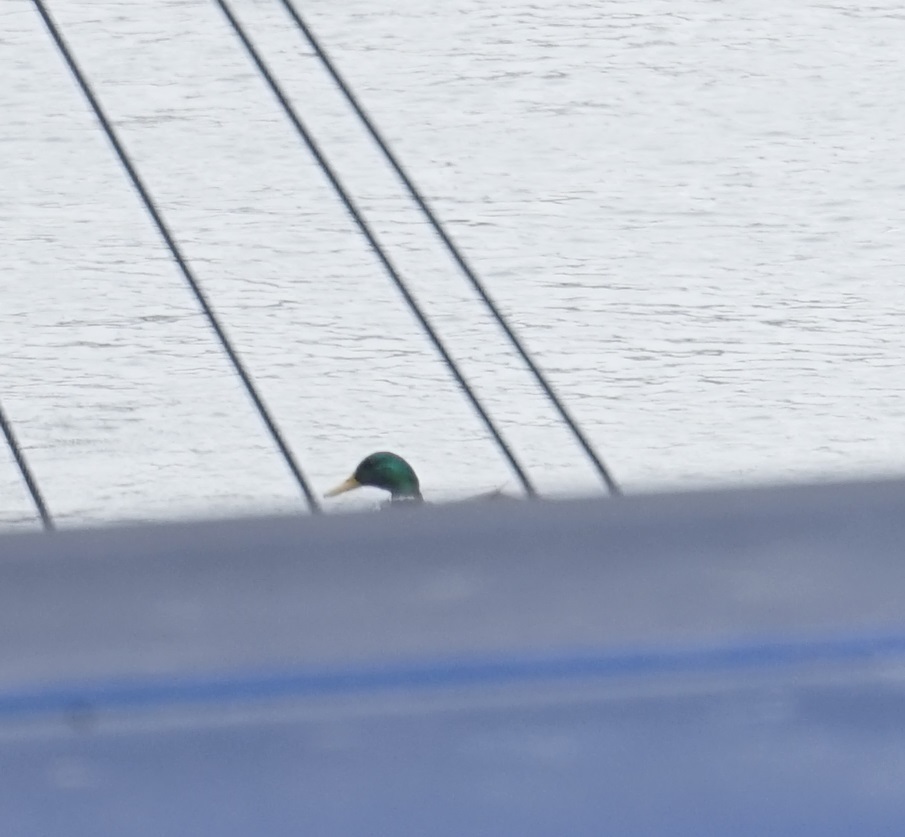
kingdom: Animalia
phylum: Chordata
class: Aves
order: Anseriformes
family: Anatidae
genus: Anas
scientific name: Anas platyrhynchos
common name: Mallard
